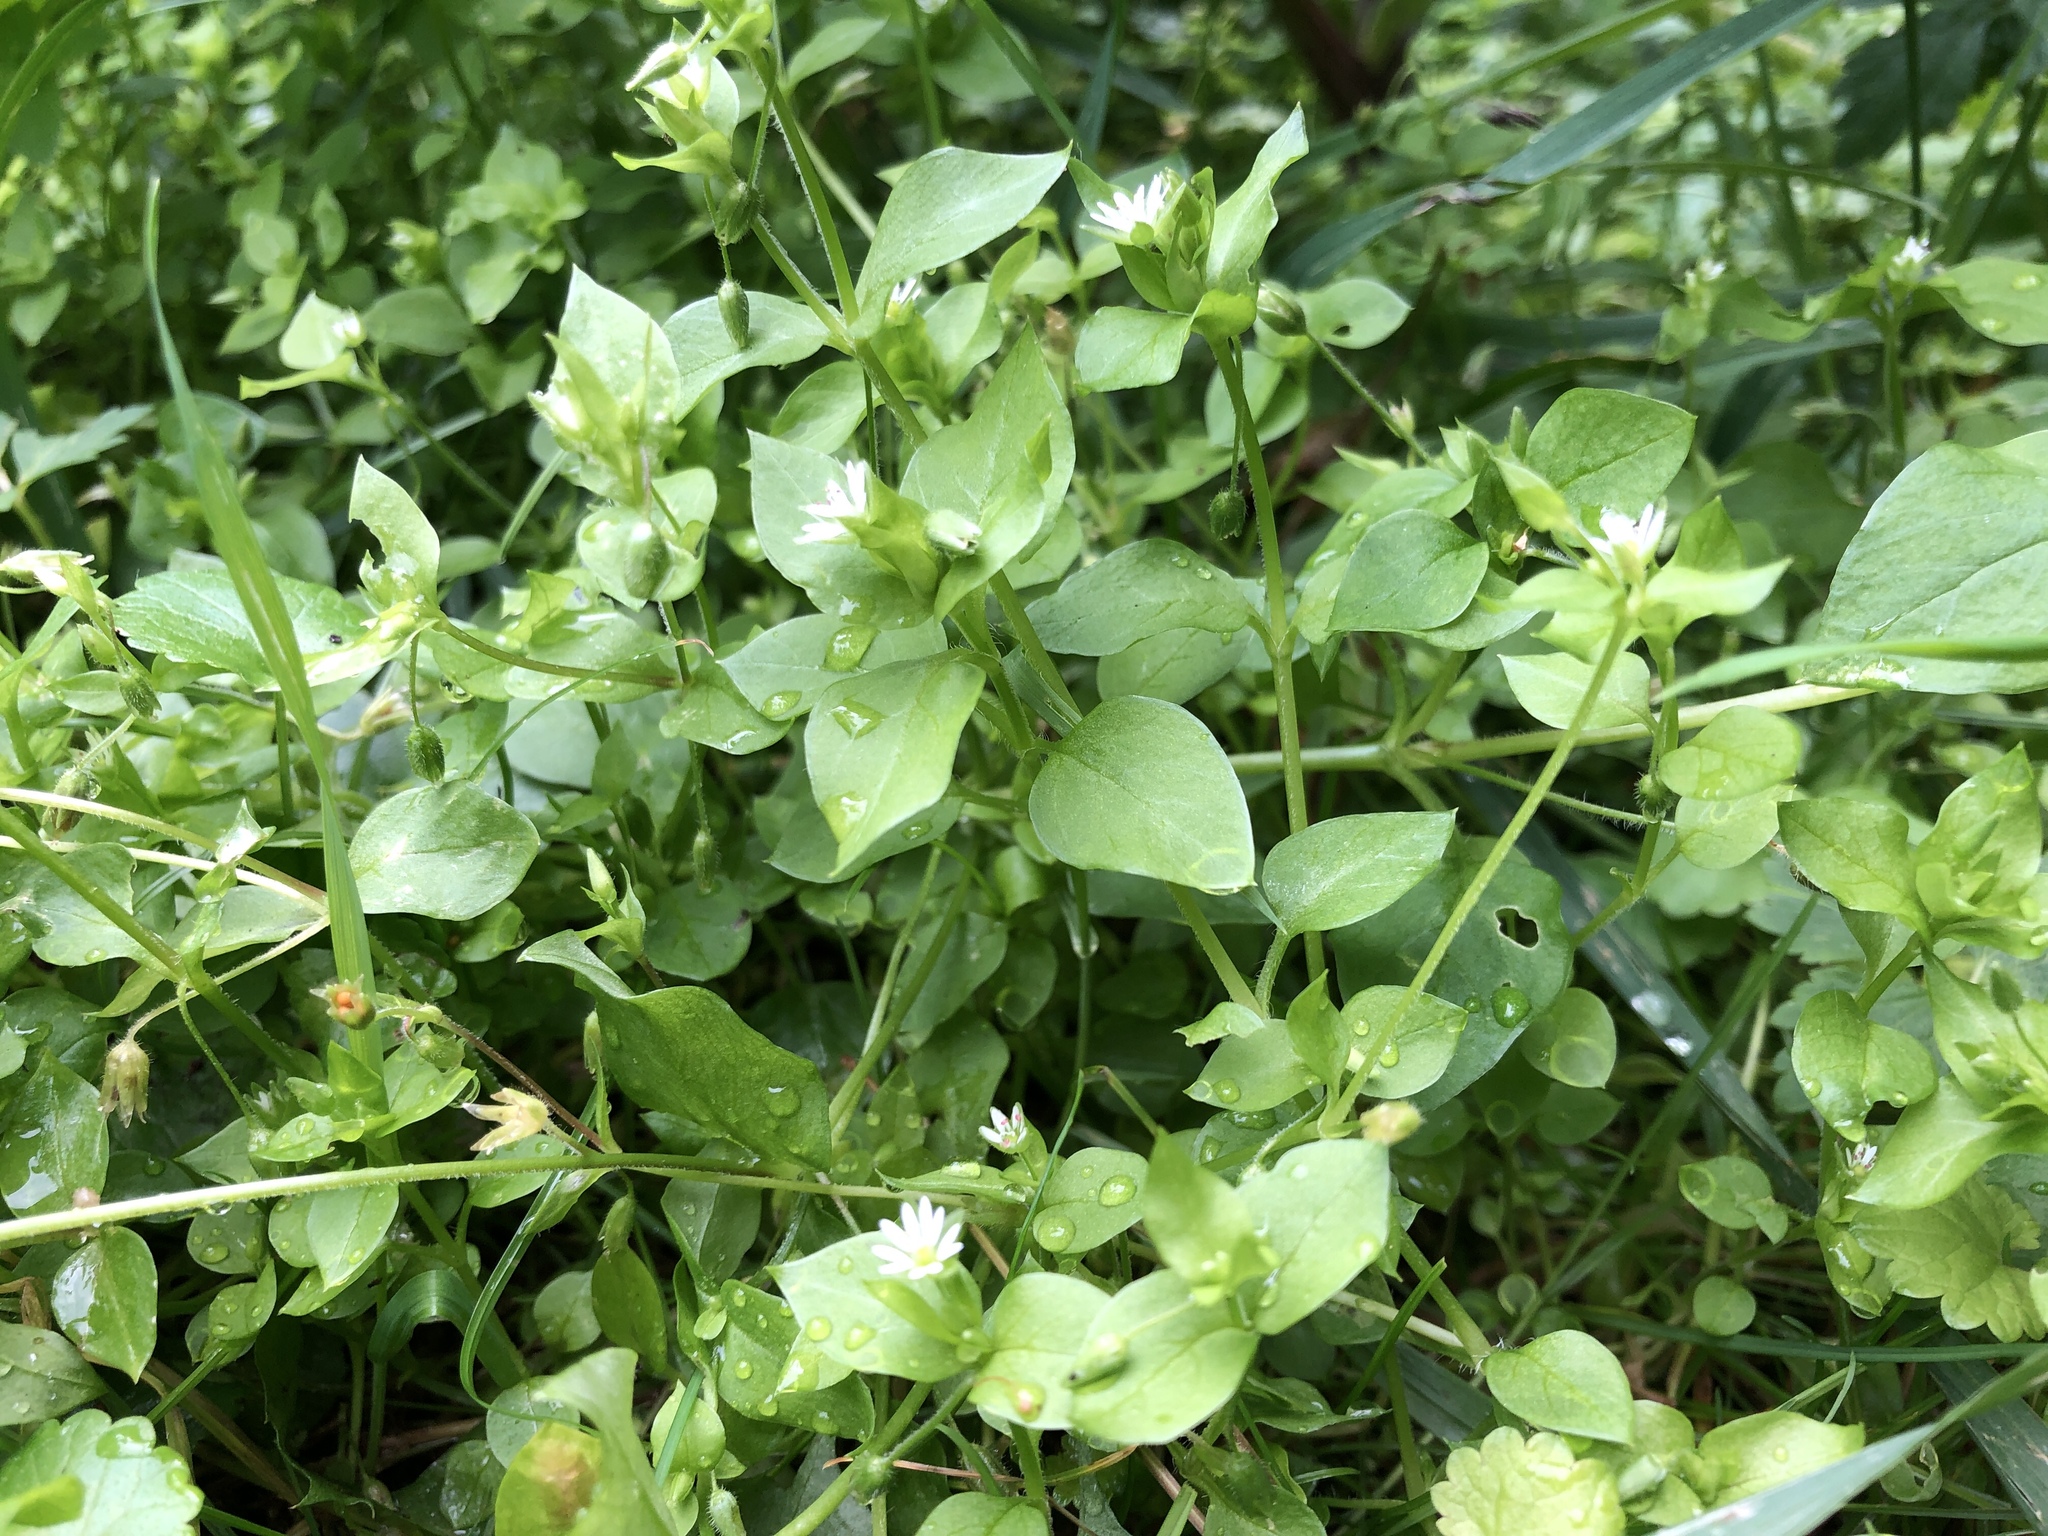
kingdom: Plantae
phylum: Tracheophyta
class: Magnoliopsida
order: Caryophyllales
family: Caryophyllaceae
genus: Stellaria
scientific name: Stellaria media
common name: Common chickweed
